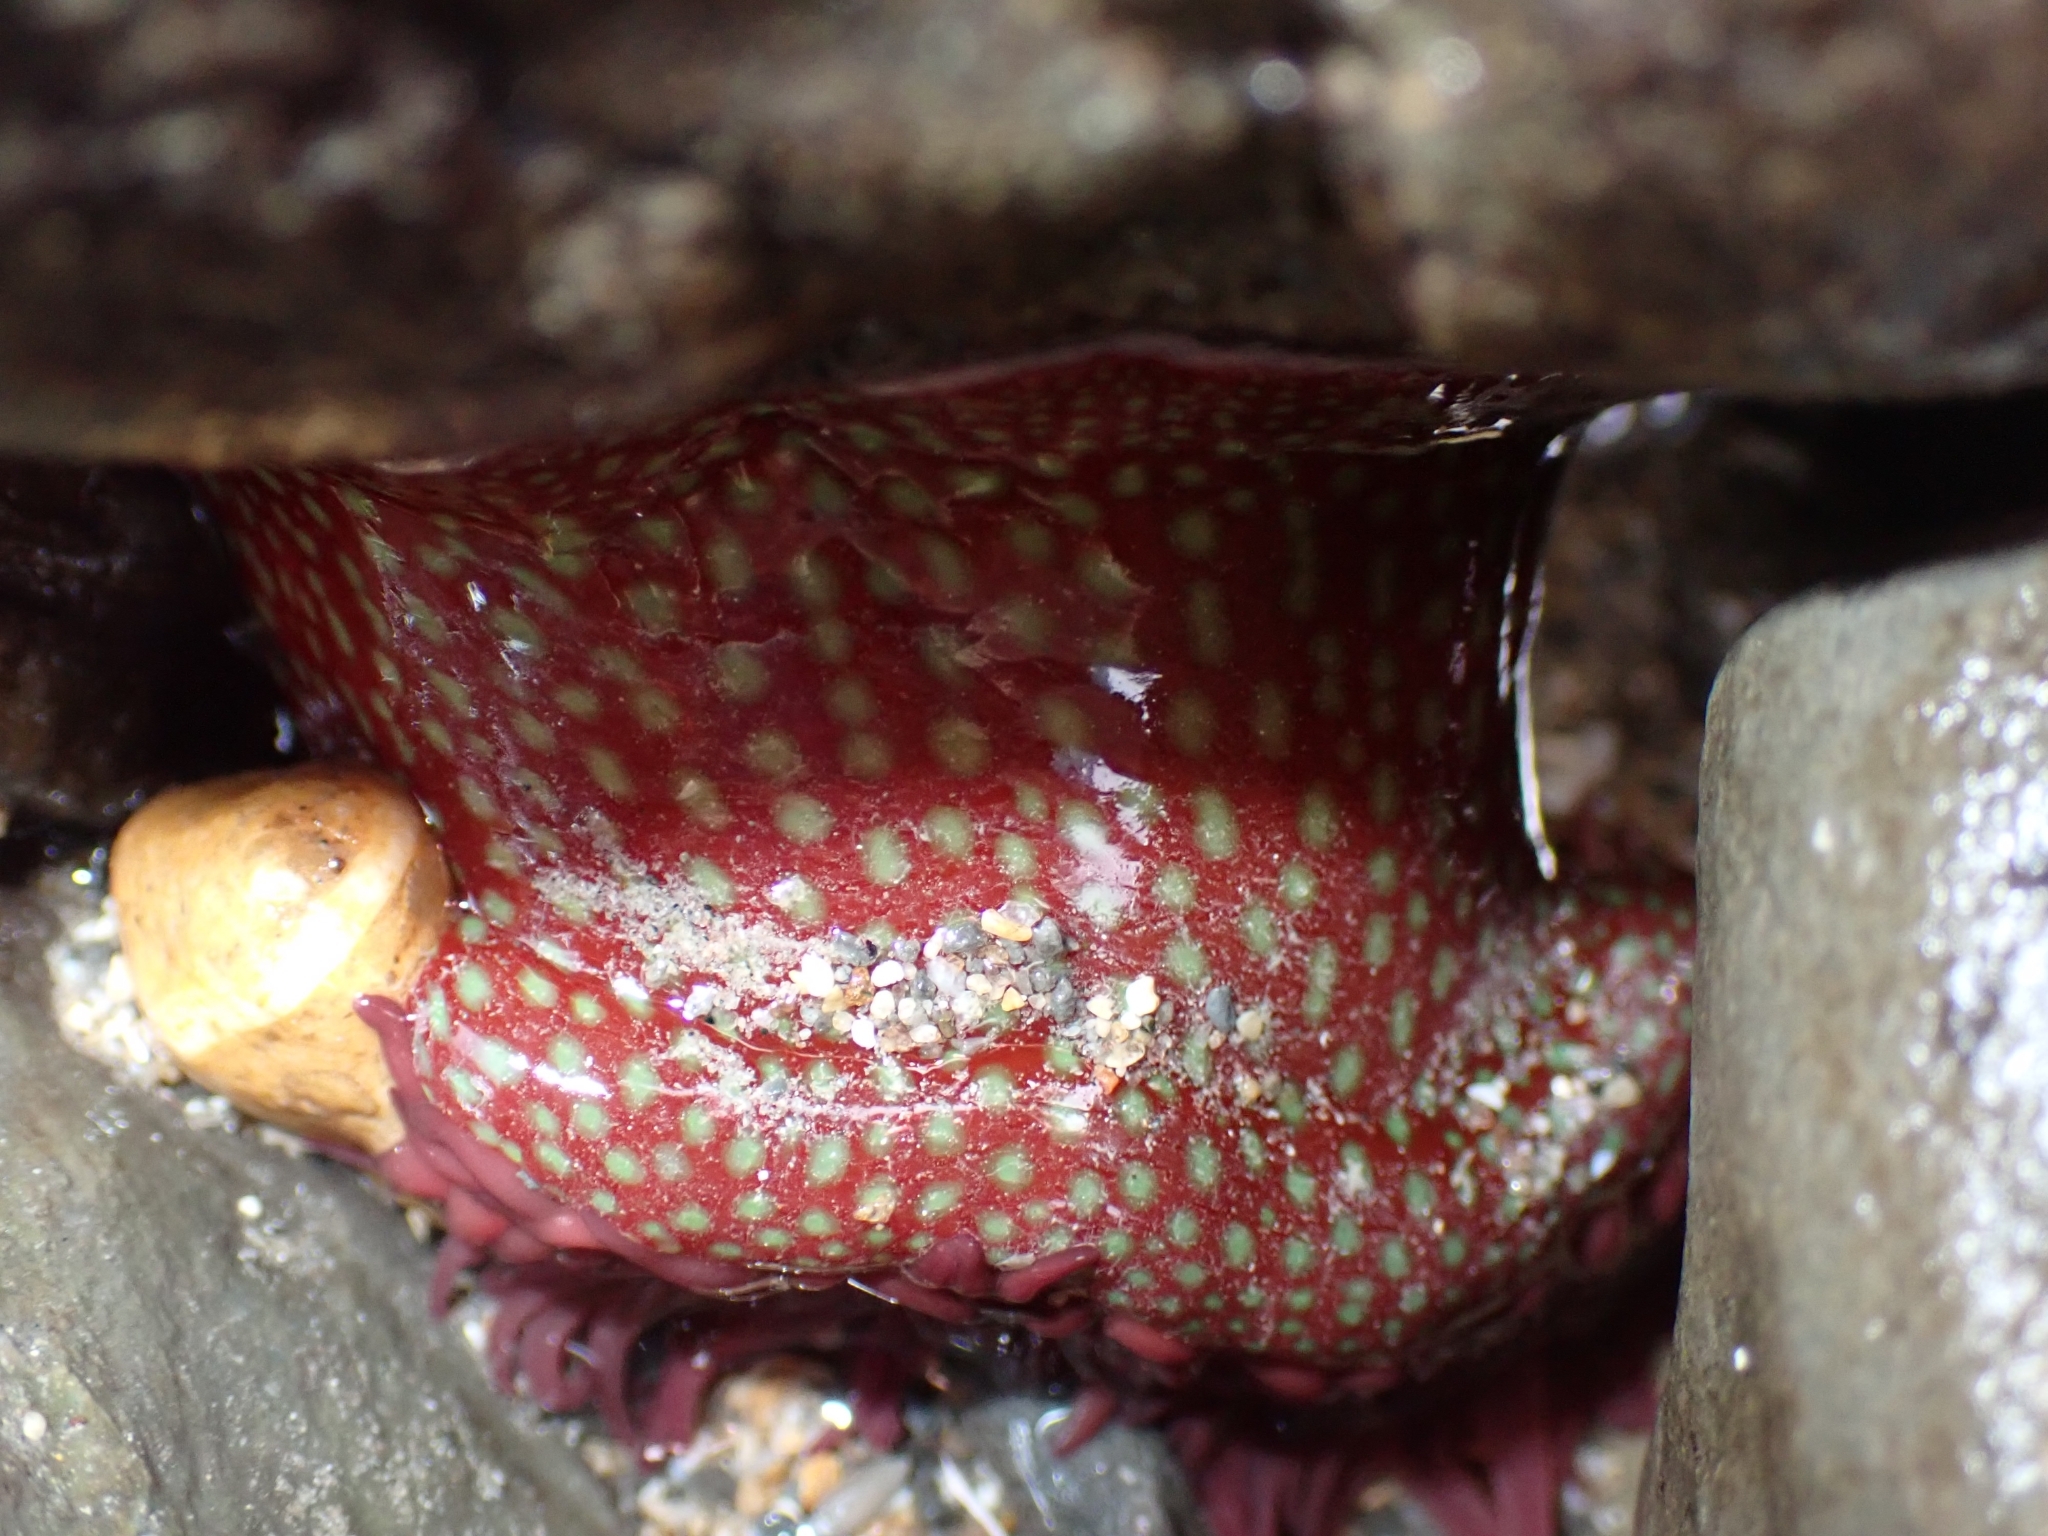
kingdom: Animalia
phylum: Cnidaria
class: Anthozoa
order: Actiniaria
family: Actiniidae
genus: Actinia
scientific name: Actinia fragacea
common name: Strawberry anemone
